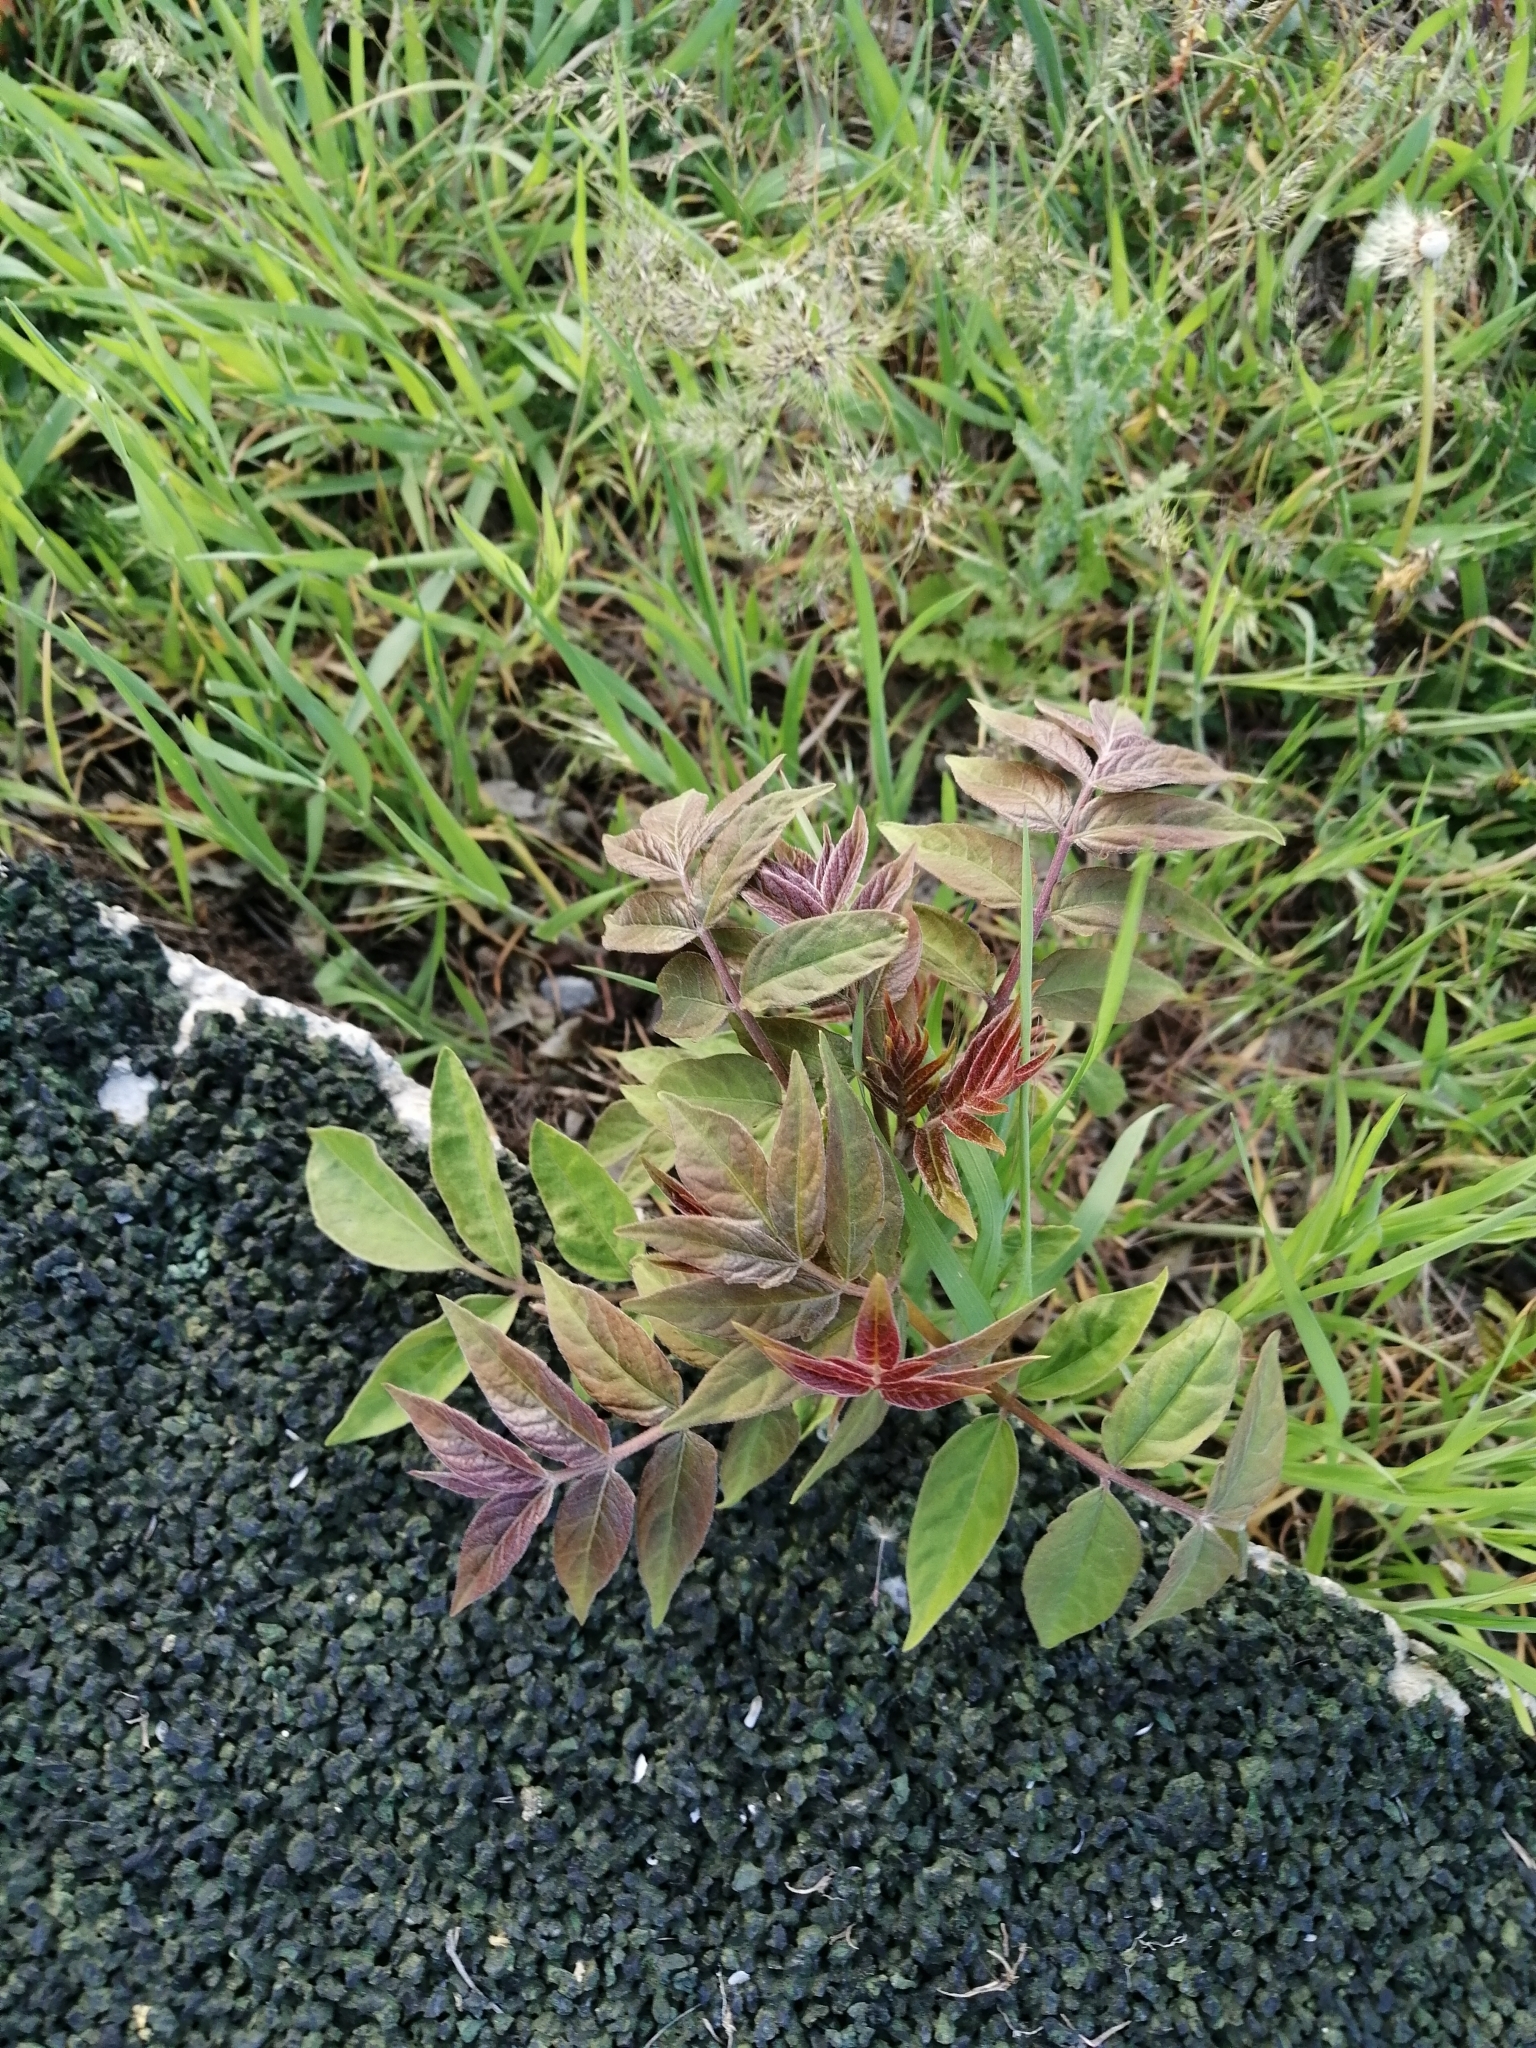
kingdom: Plantae
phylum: Tracheophyta
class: Magnoliopsida
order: Sapindales
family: Simaroubaceae
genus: Ailanthus
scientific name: Ailanthus altissima
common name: Tree-of-heaven
